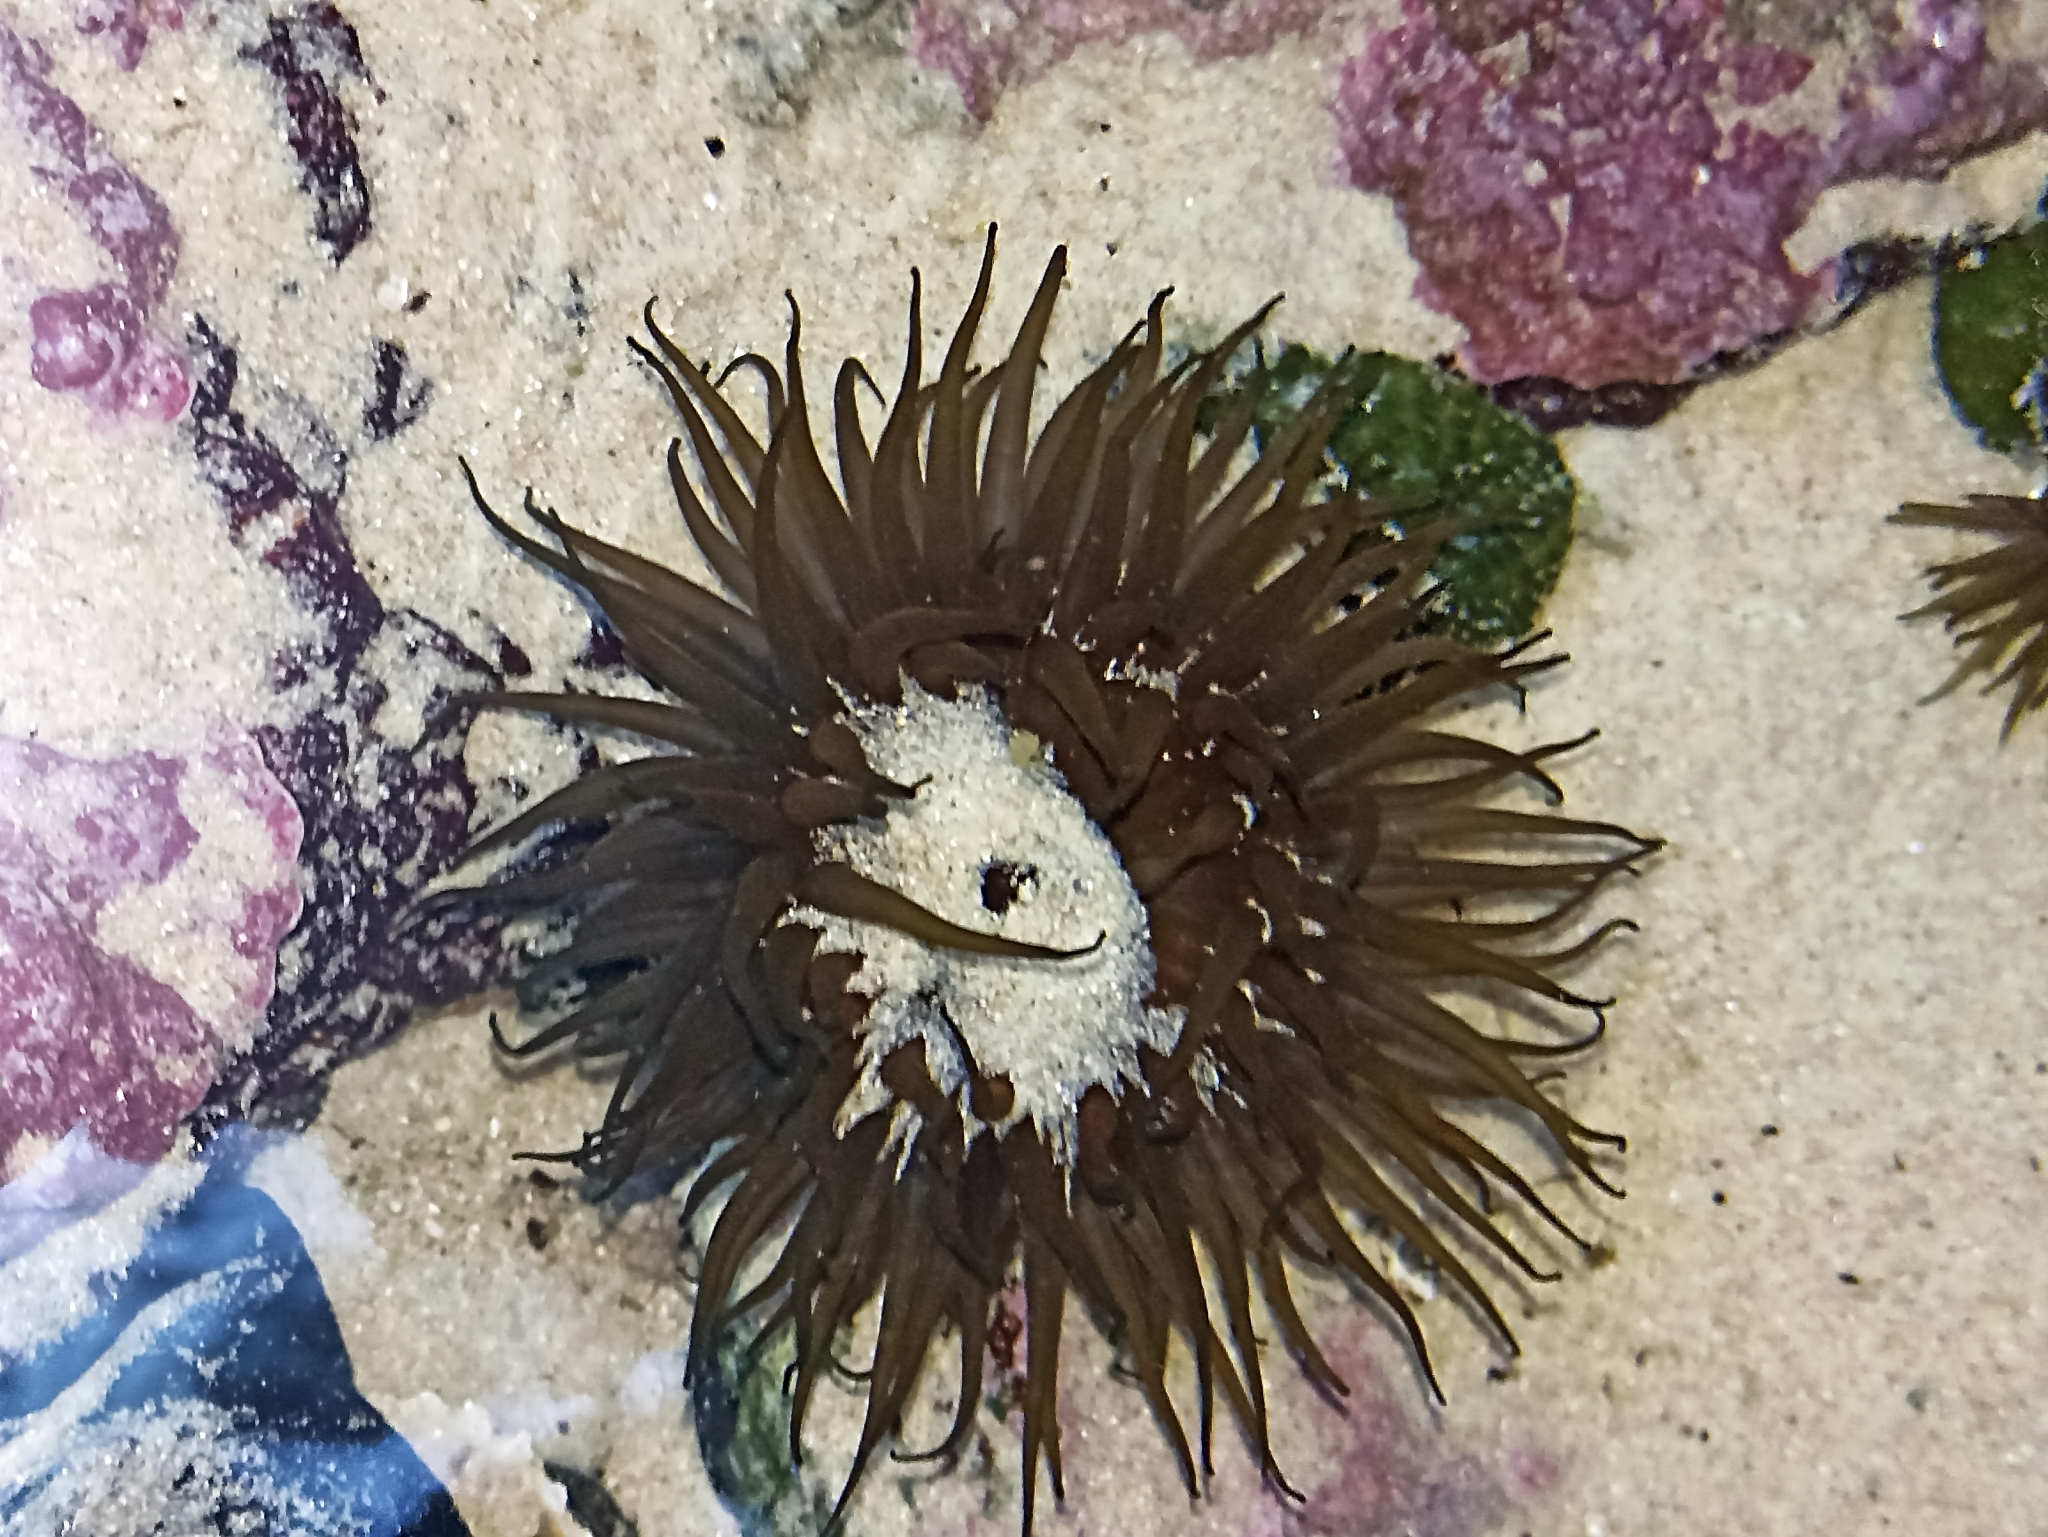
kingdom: Animalia
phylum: Cnidaria
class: Anthozoa
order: Actiniaria
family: Actiniidae
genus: Aulactinia
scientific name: Aulactinia veratra
